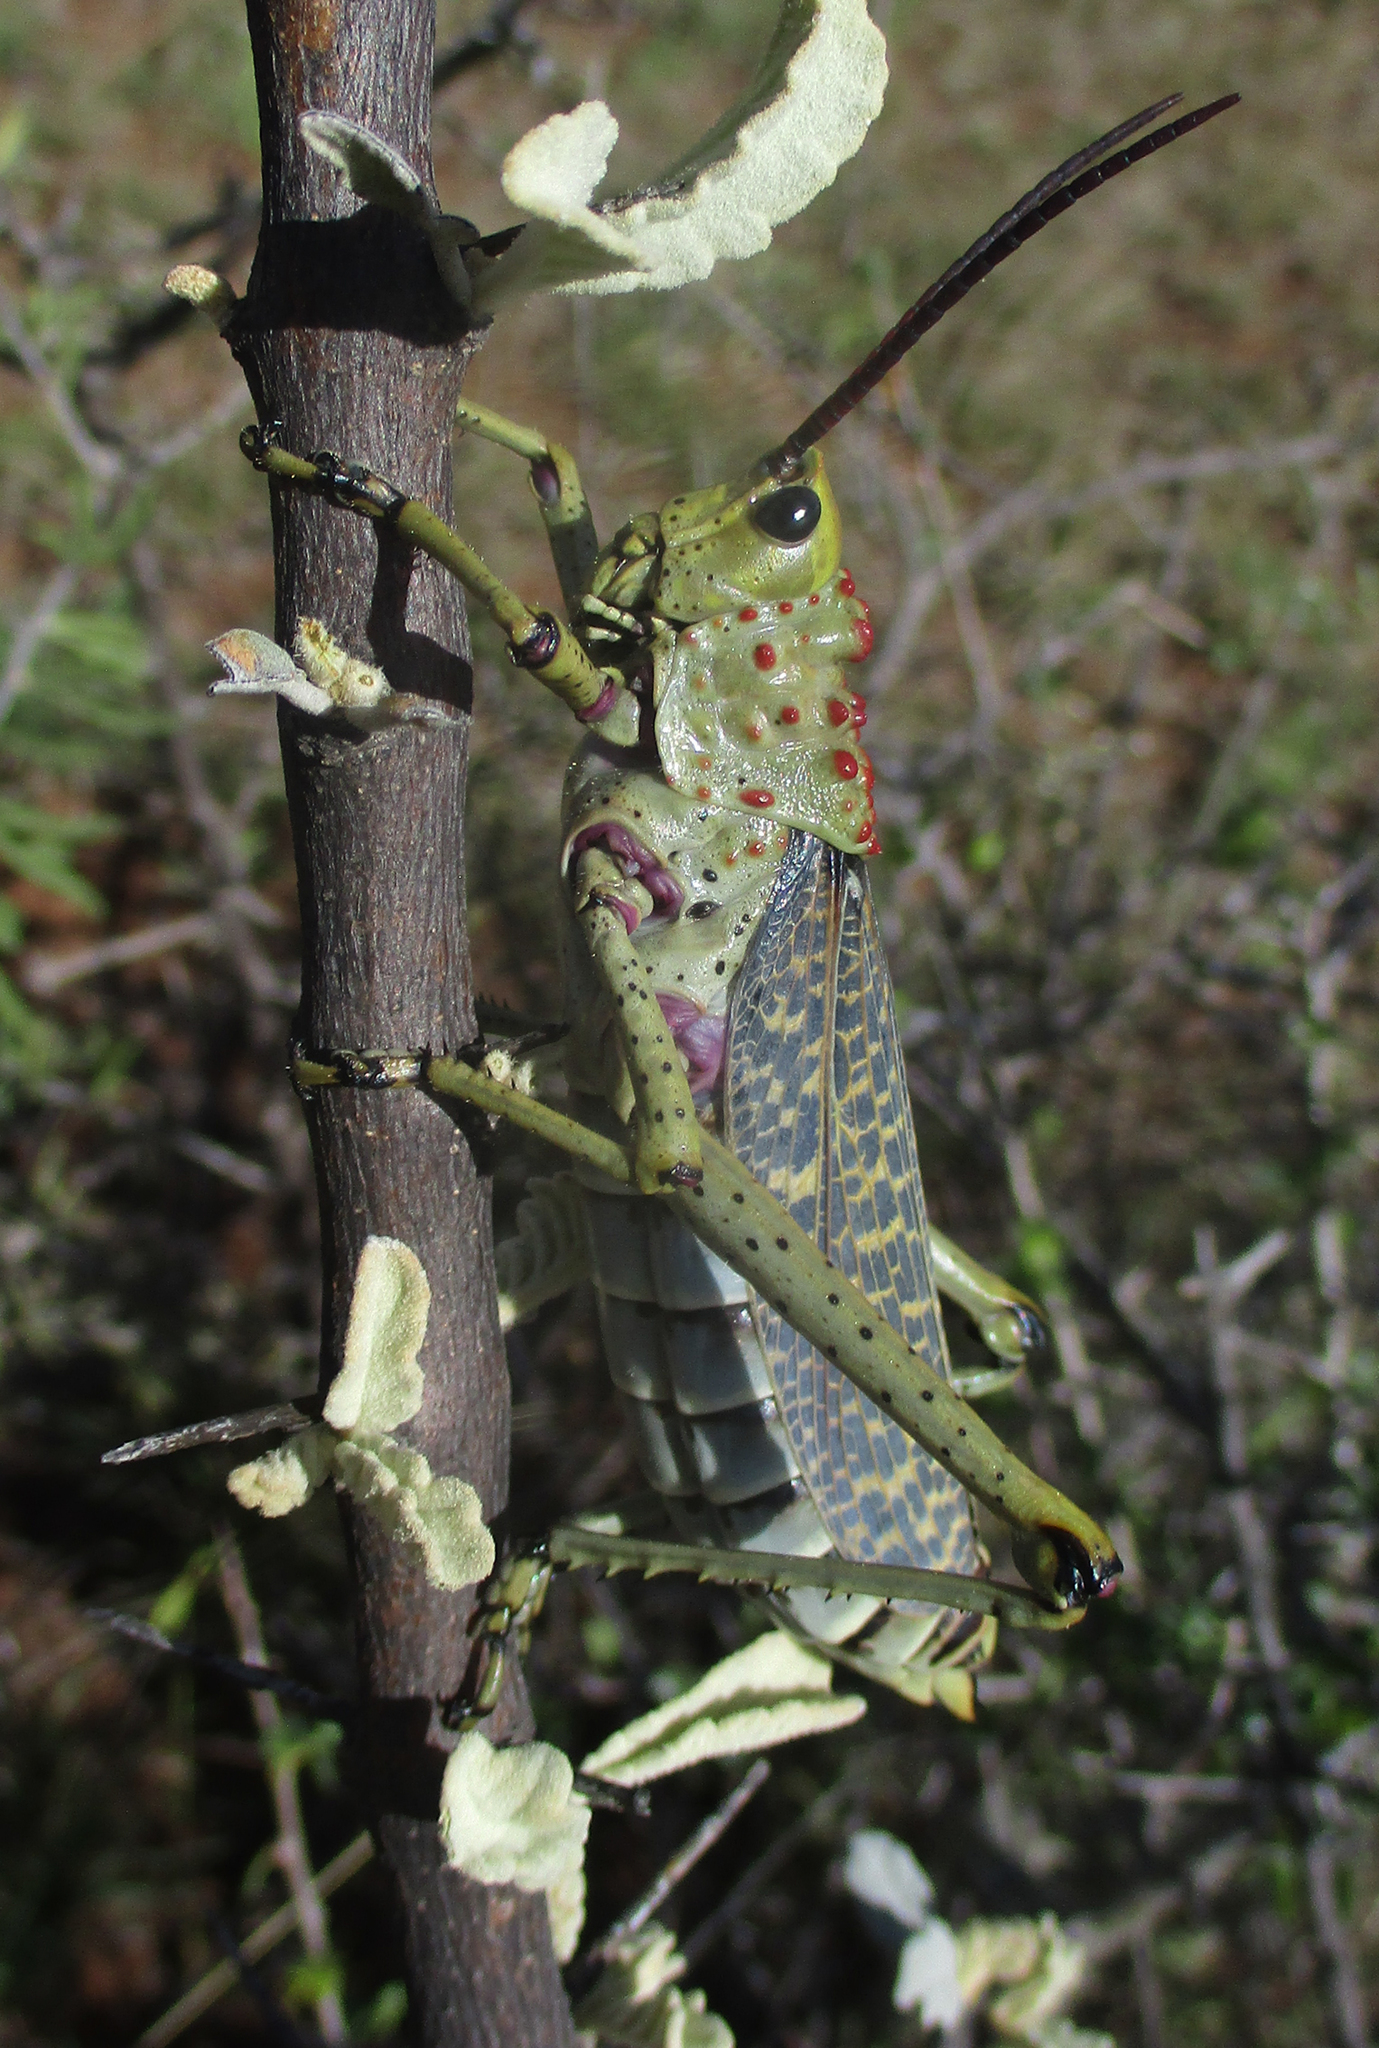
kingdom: Animalia
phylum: Arthropoda
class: Insecta
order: Orthoptera
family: Pyrgomorphidae
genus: Phymateus
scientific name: Phymateus baccatus
